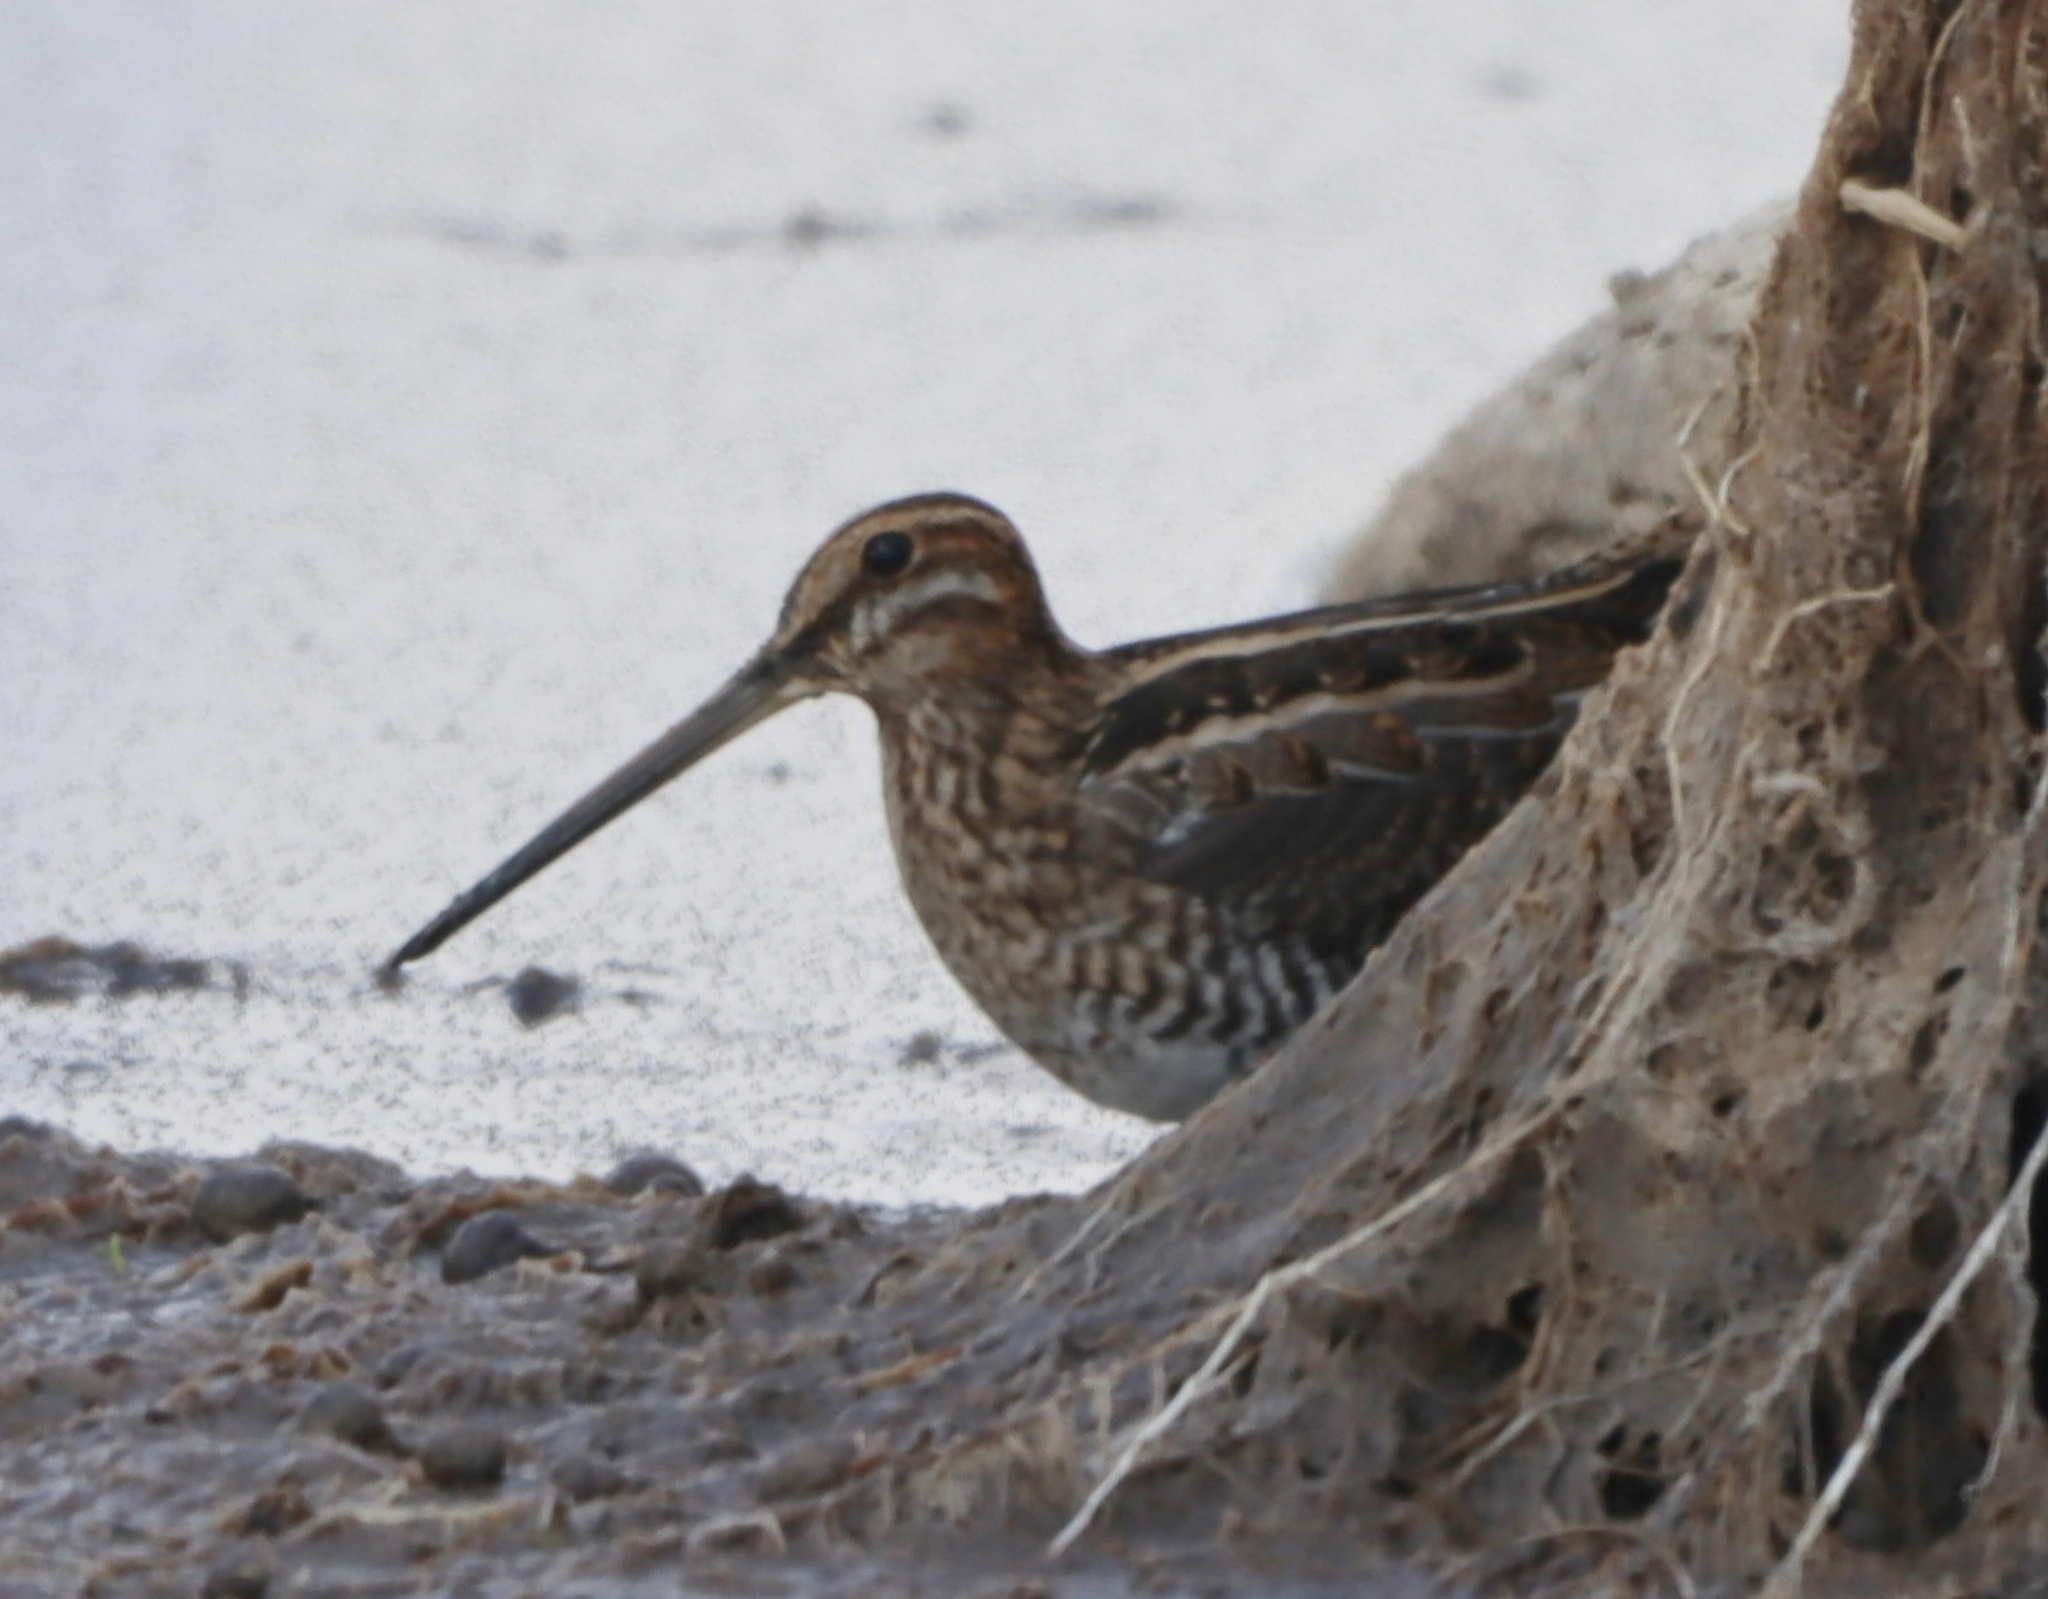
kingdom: Animalia
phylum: Chordata
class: Aves
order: Charadriiformes
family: Scolopacidae
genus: Gallinago
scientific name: Gallinago delicata
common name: Wilson's snipe
